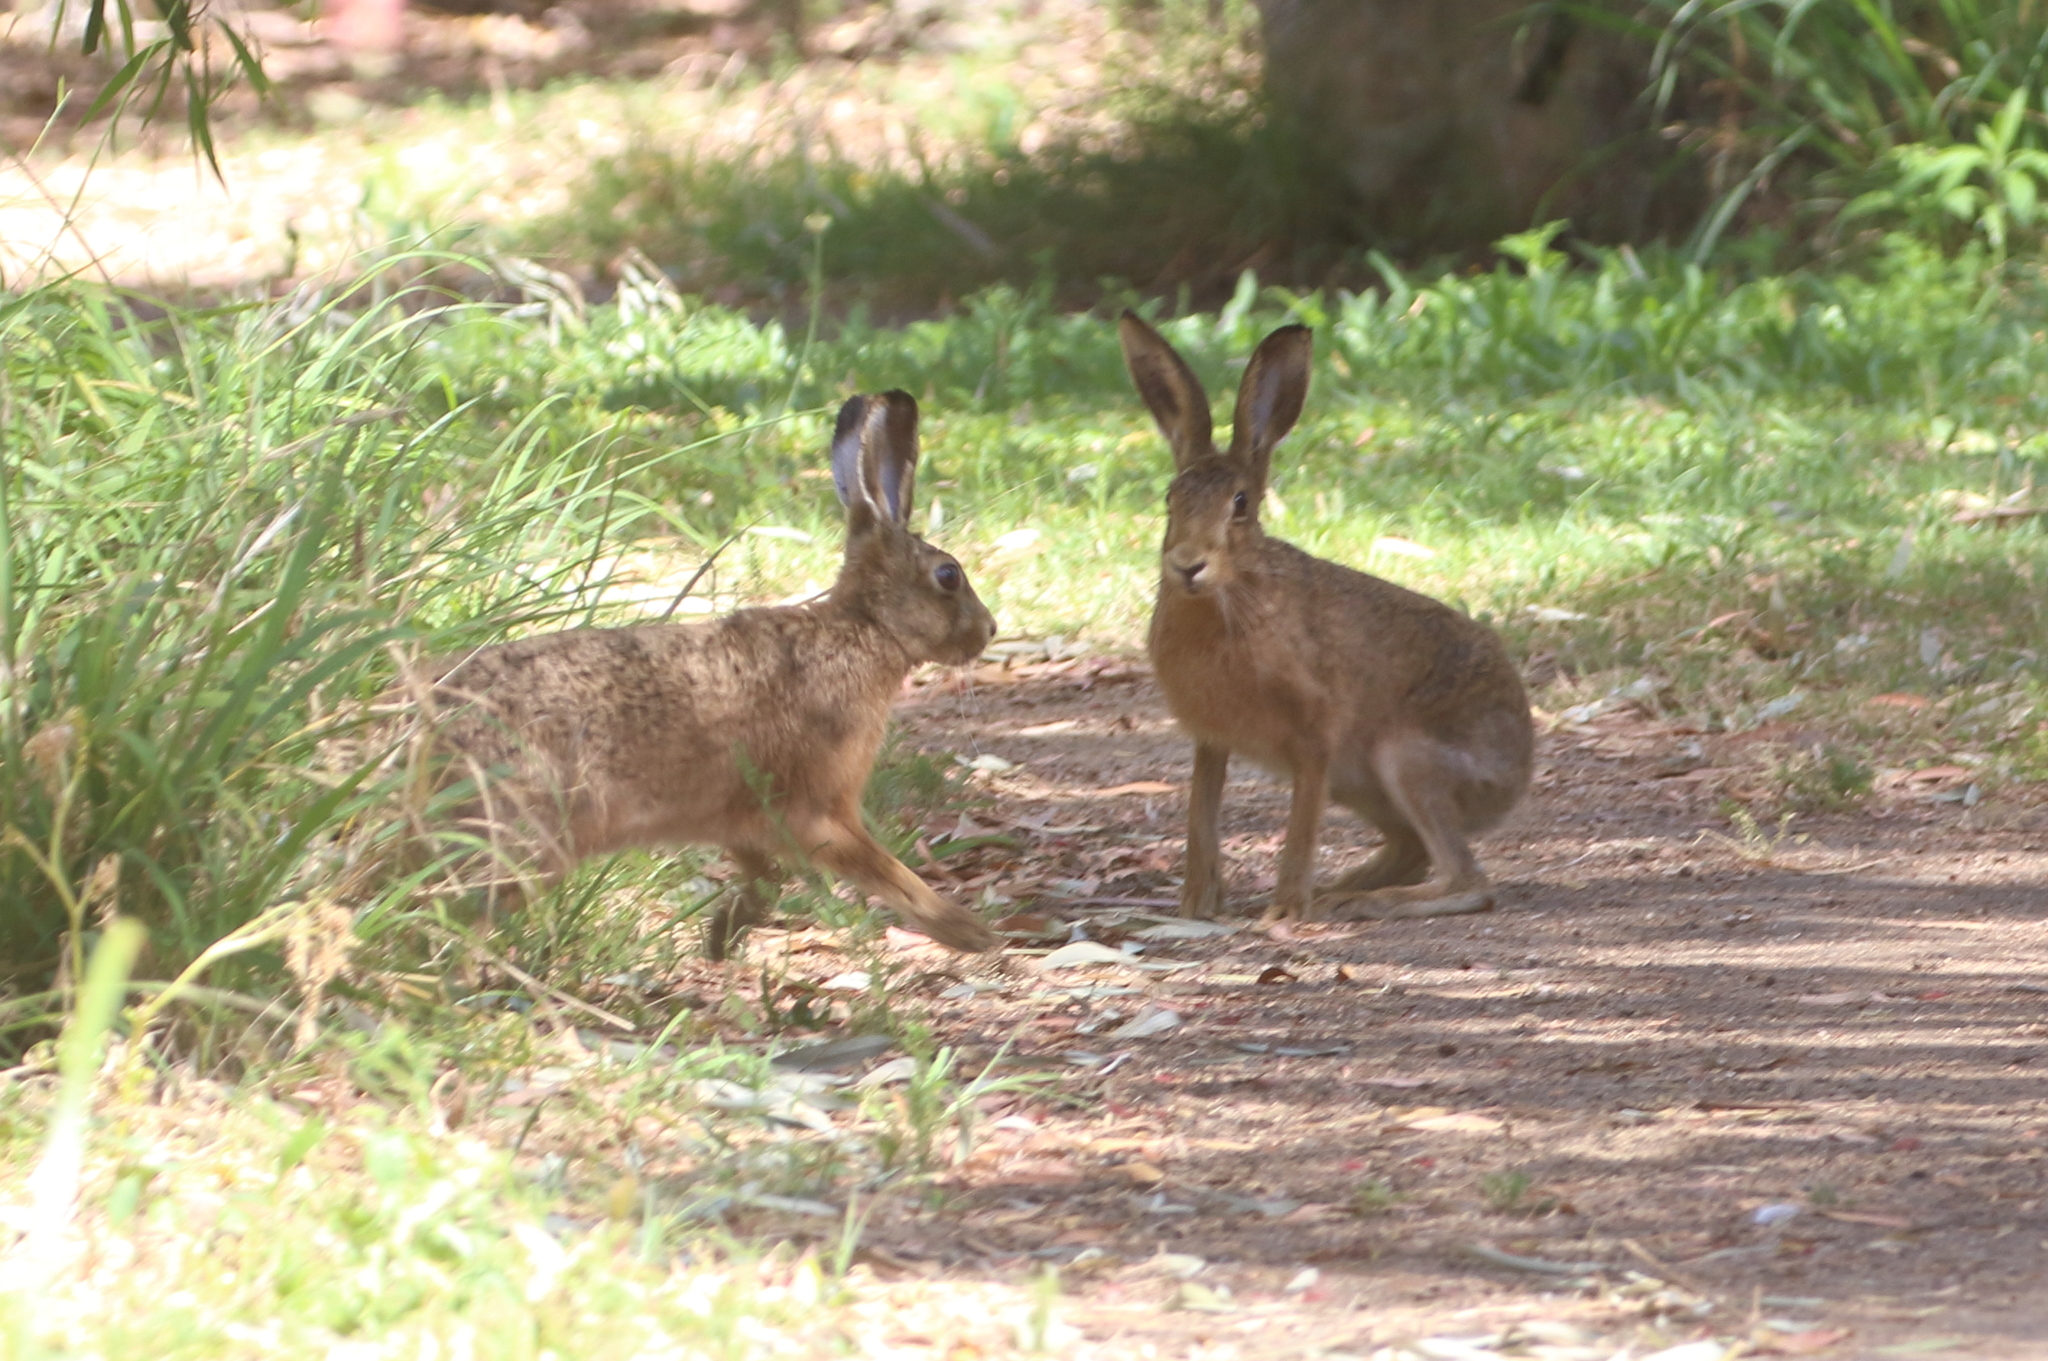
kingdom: Animalia
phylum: Chordata
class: Mammalia
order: Lagomorpha
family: Leporidae
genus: Lepus
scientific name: Lepus europaeus
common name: European hare
